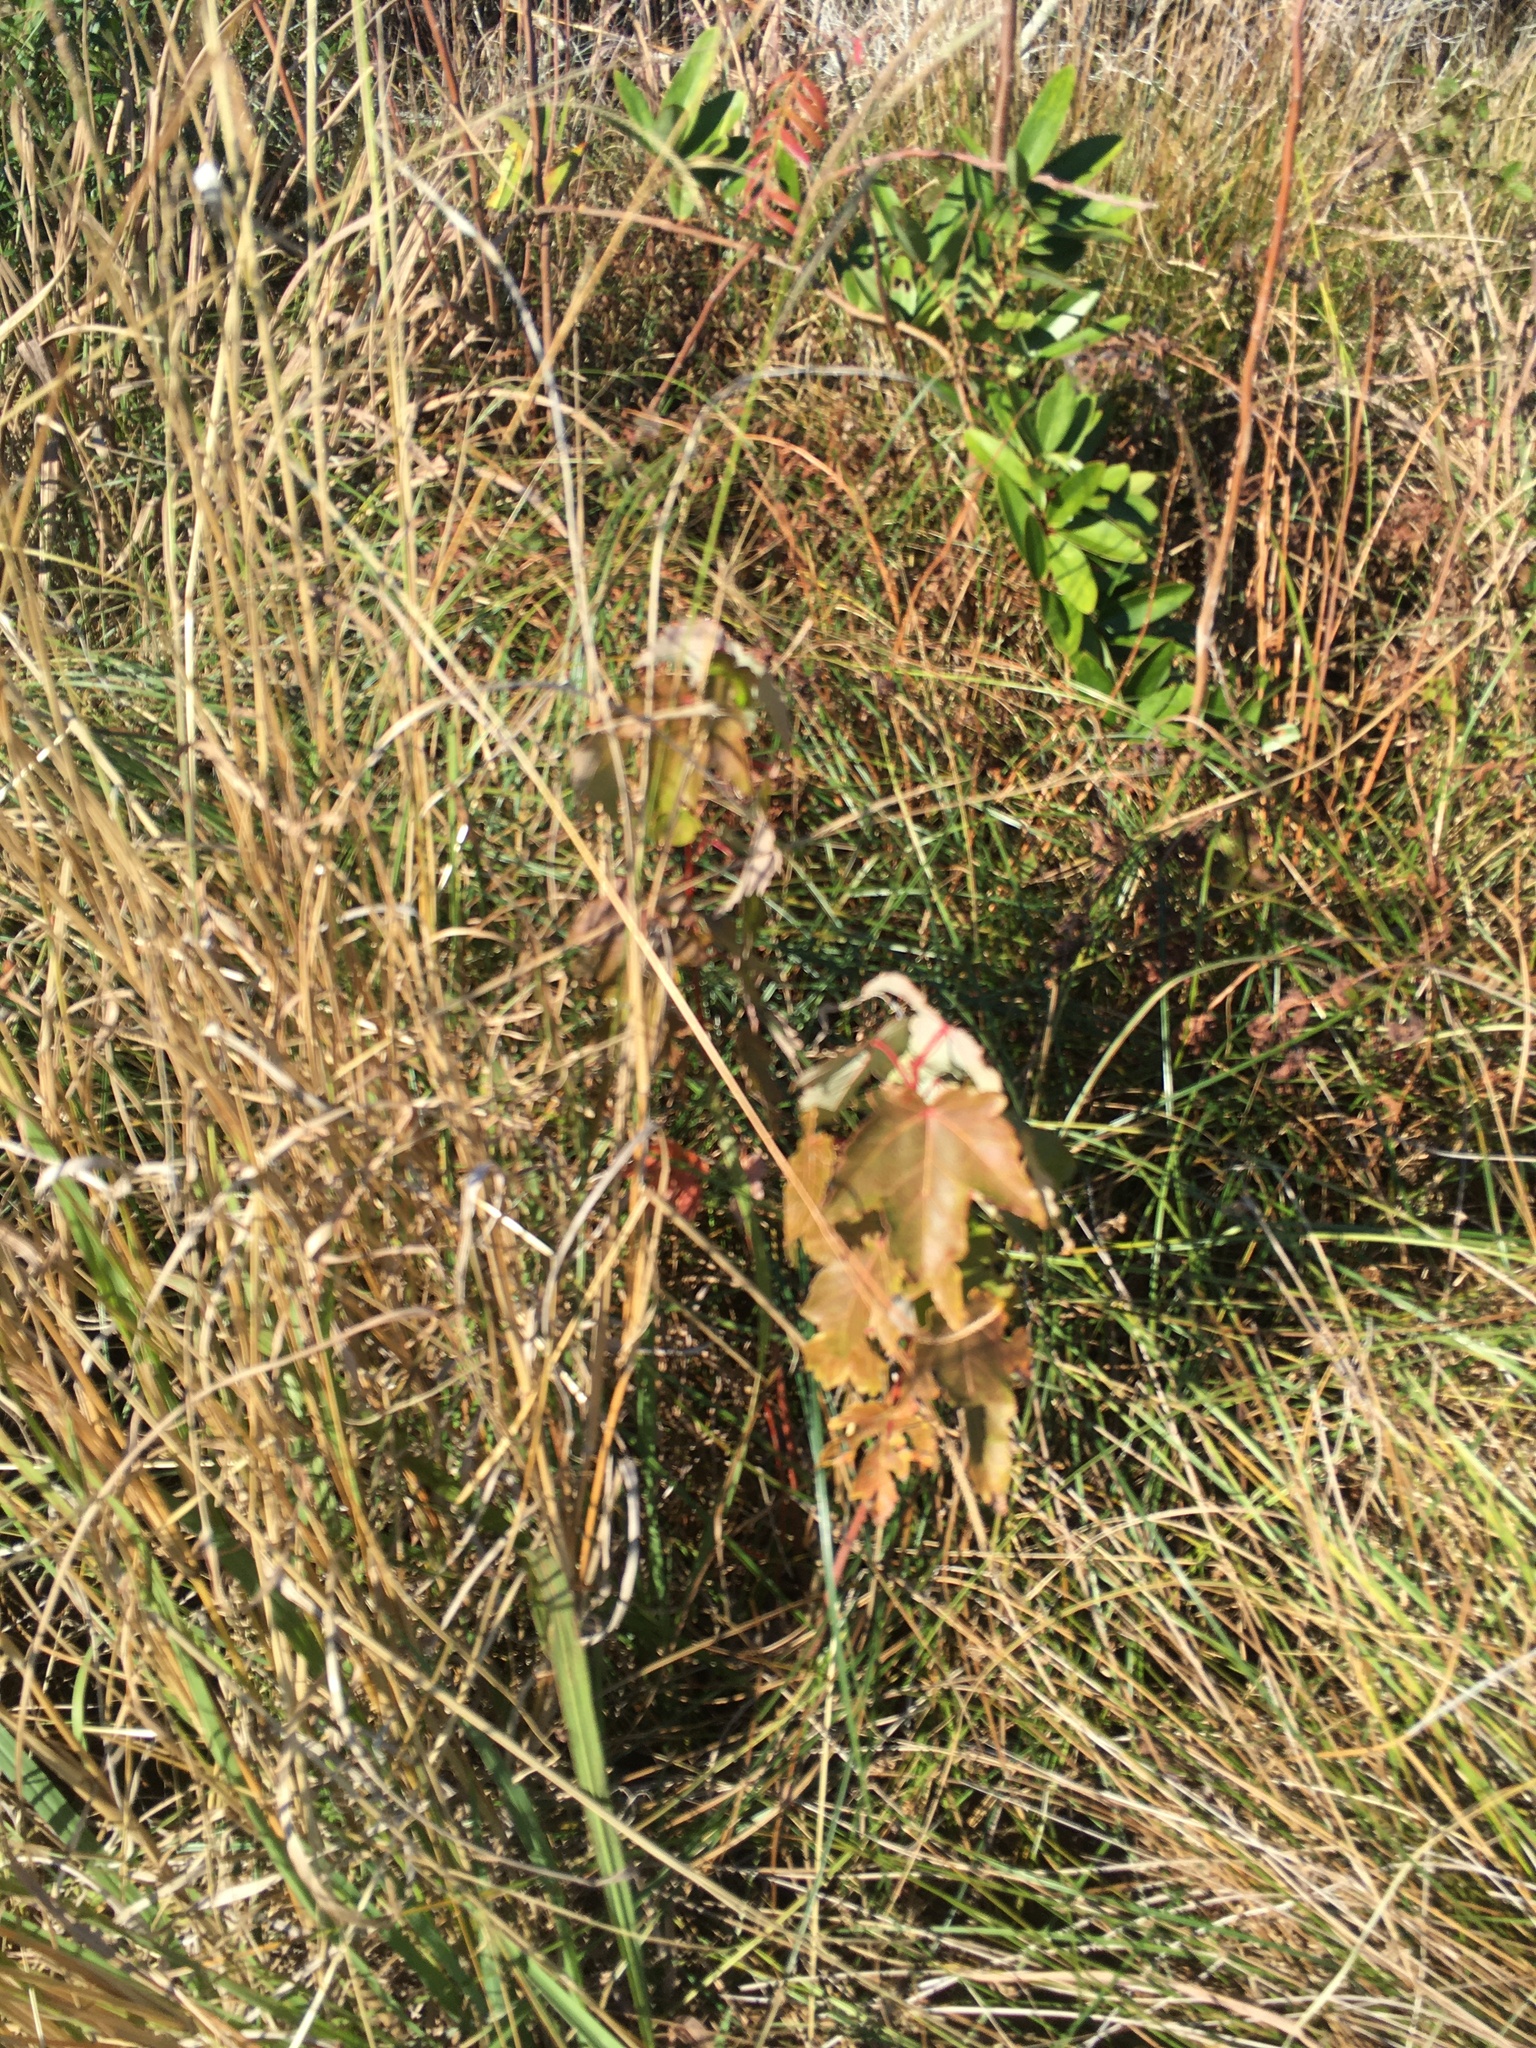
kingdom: Plantae
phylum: Tracheophyta
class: Magnoliopsida
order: Sapindales
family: Sapindaceae
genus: Acer
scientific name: Acer rubrum
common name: Red maple
